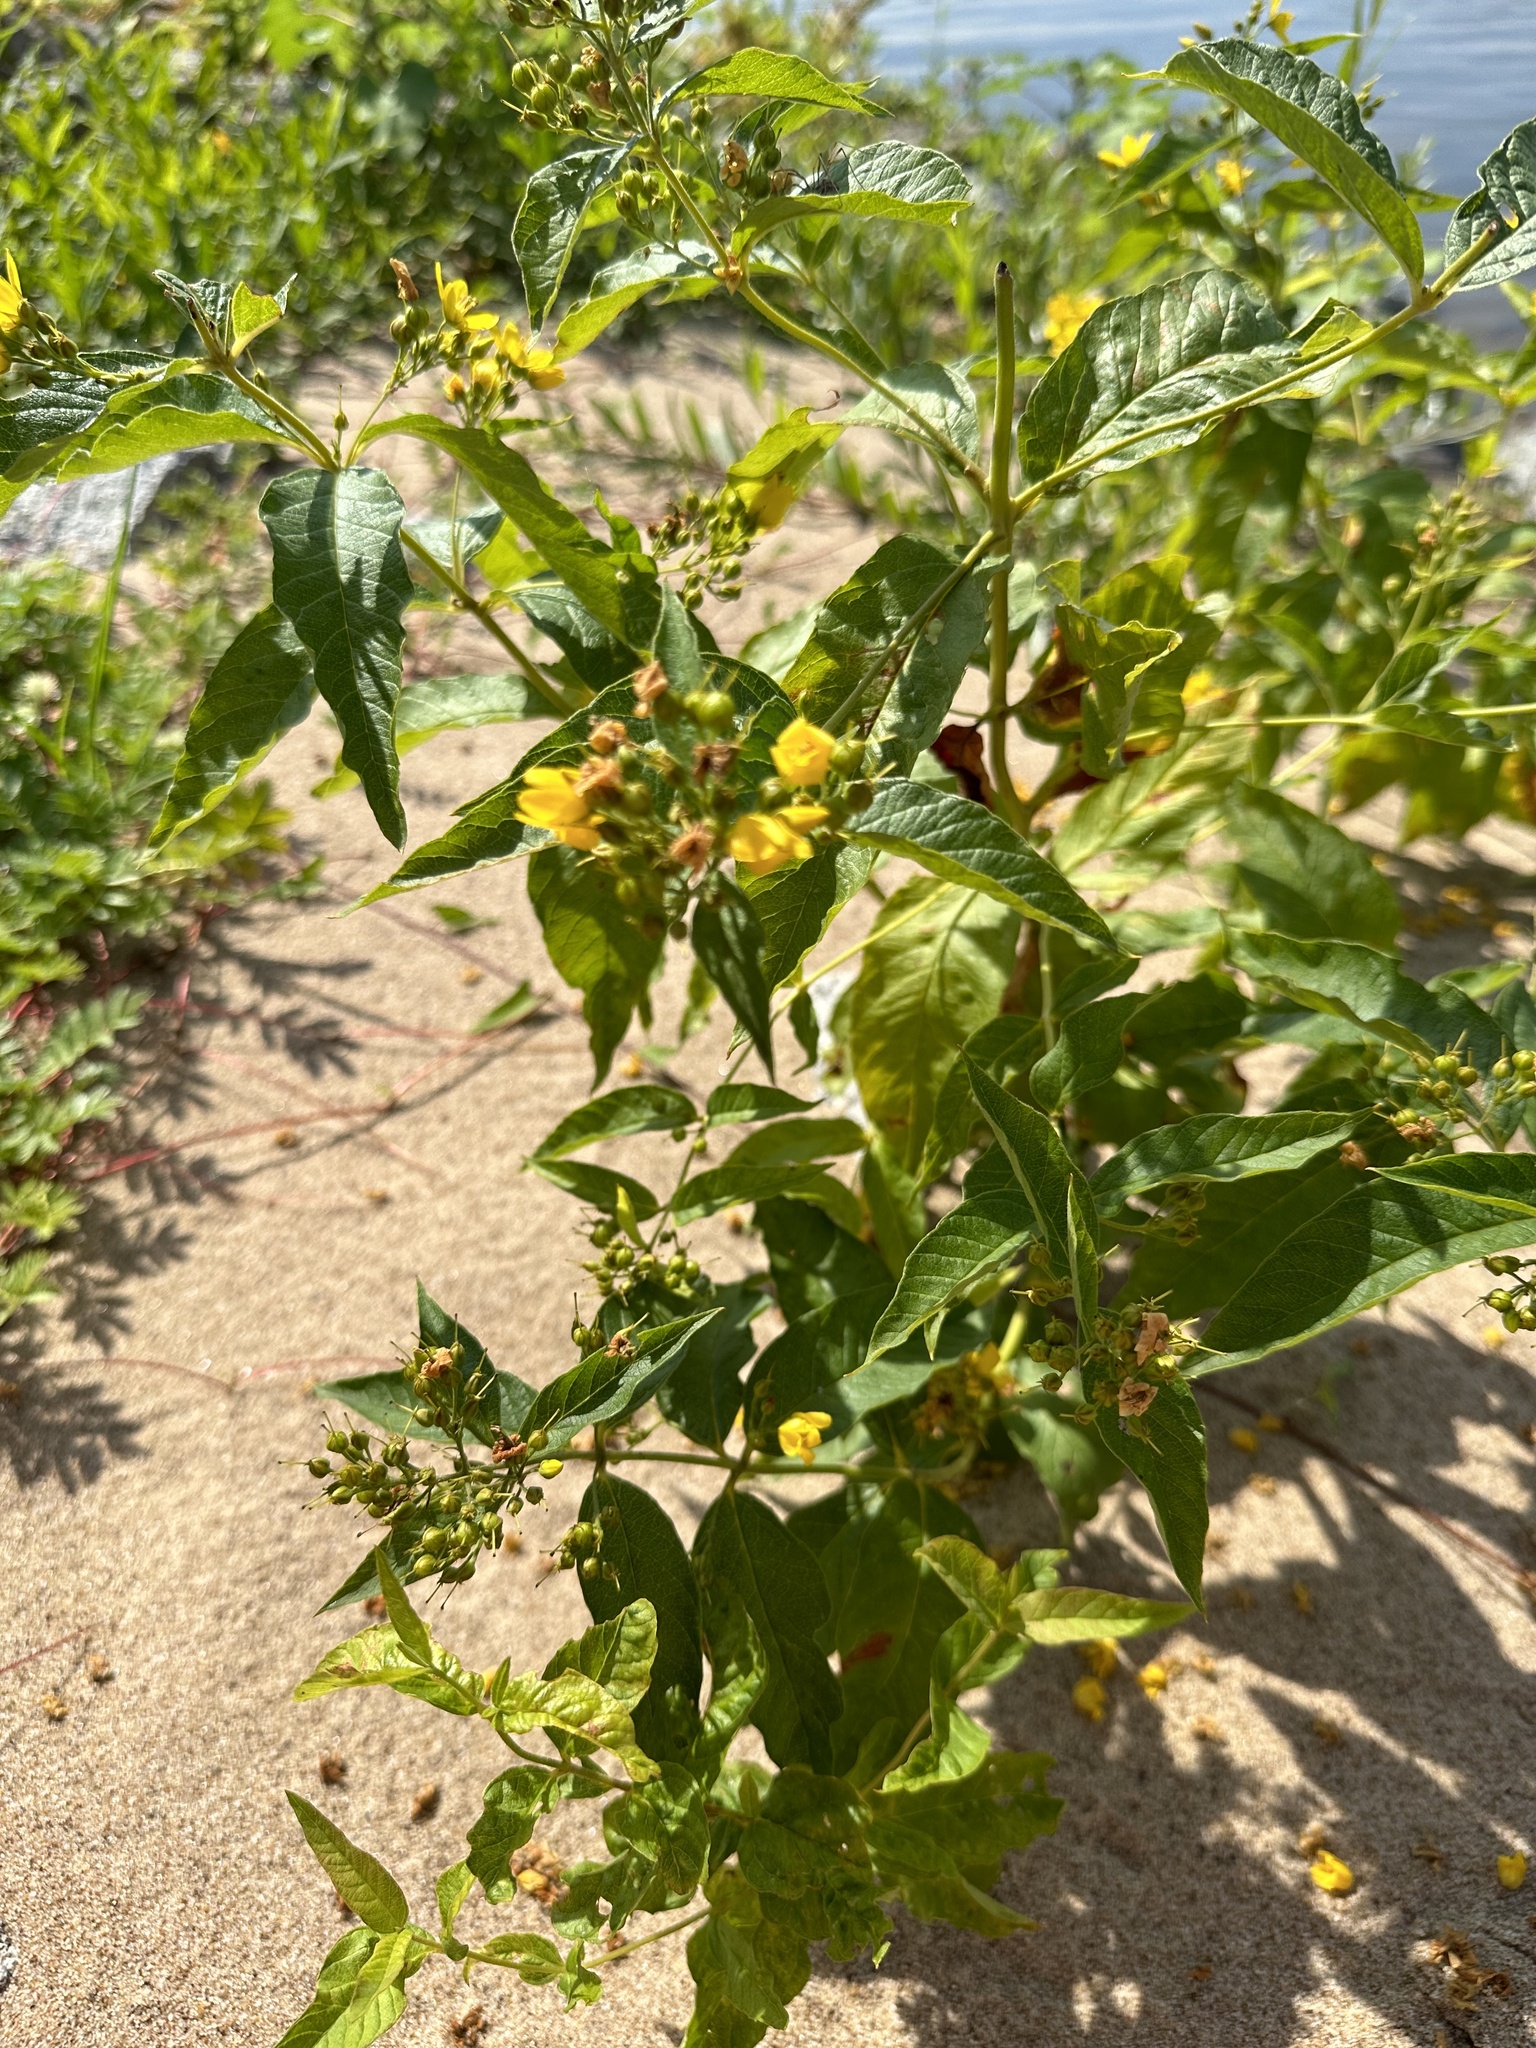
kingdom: Plantae
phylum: Tracheophyta
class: Magnoliopsida
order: Ericales
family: Primulaceae
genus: Lysimachia
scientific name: Lysimachia vulgaris
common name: Yellow loosestrife
